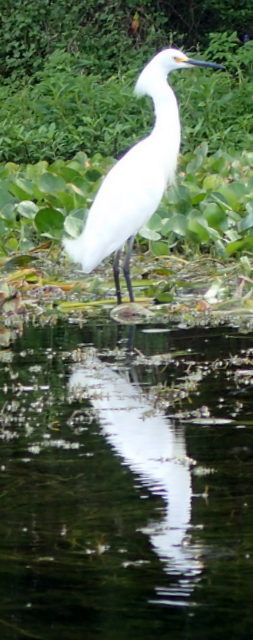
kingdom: Animalia
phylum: Chordata
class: Aves
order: Pelecaniformes
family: Ardeidae
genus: Egretta
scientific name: Egretta thula
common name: Snowy egret
